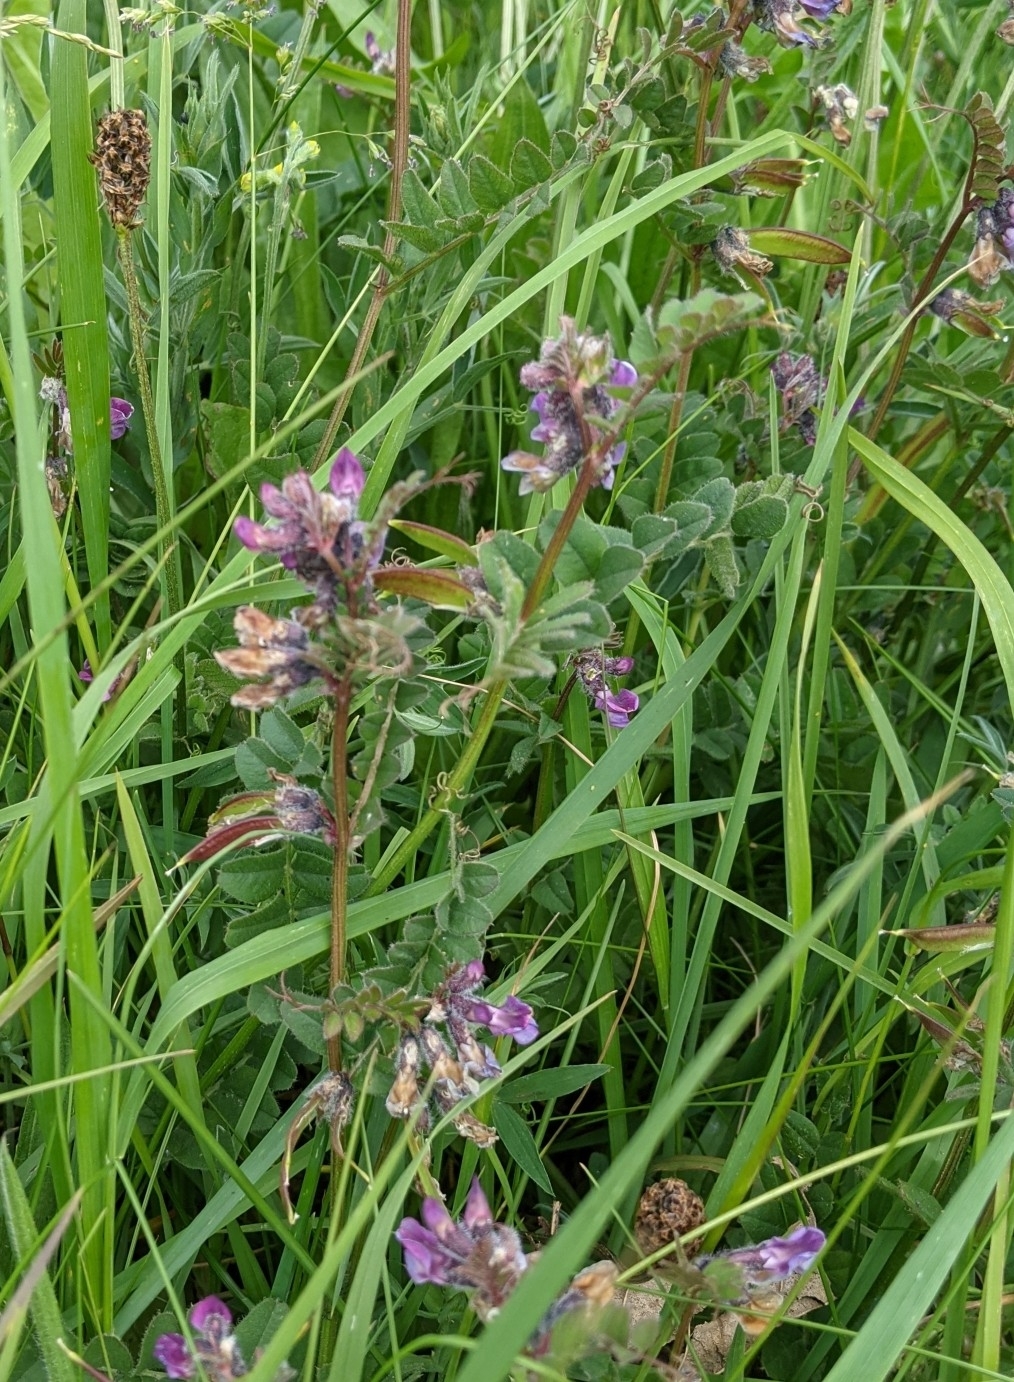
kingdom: Plantae
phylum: Tracheophyta
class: Magnoliopsida
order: Fabales
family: Fabaceae
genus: Vicia
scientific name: Vicia sepium
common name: Bush vetch
